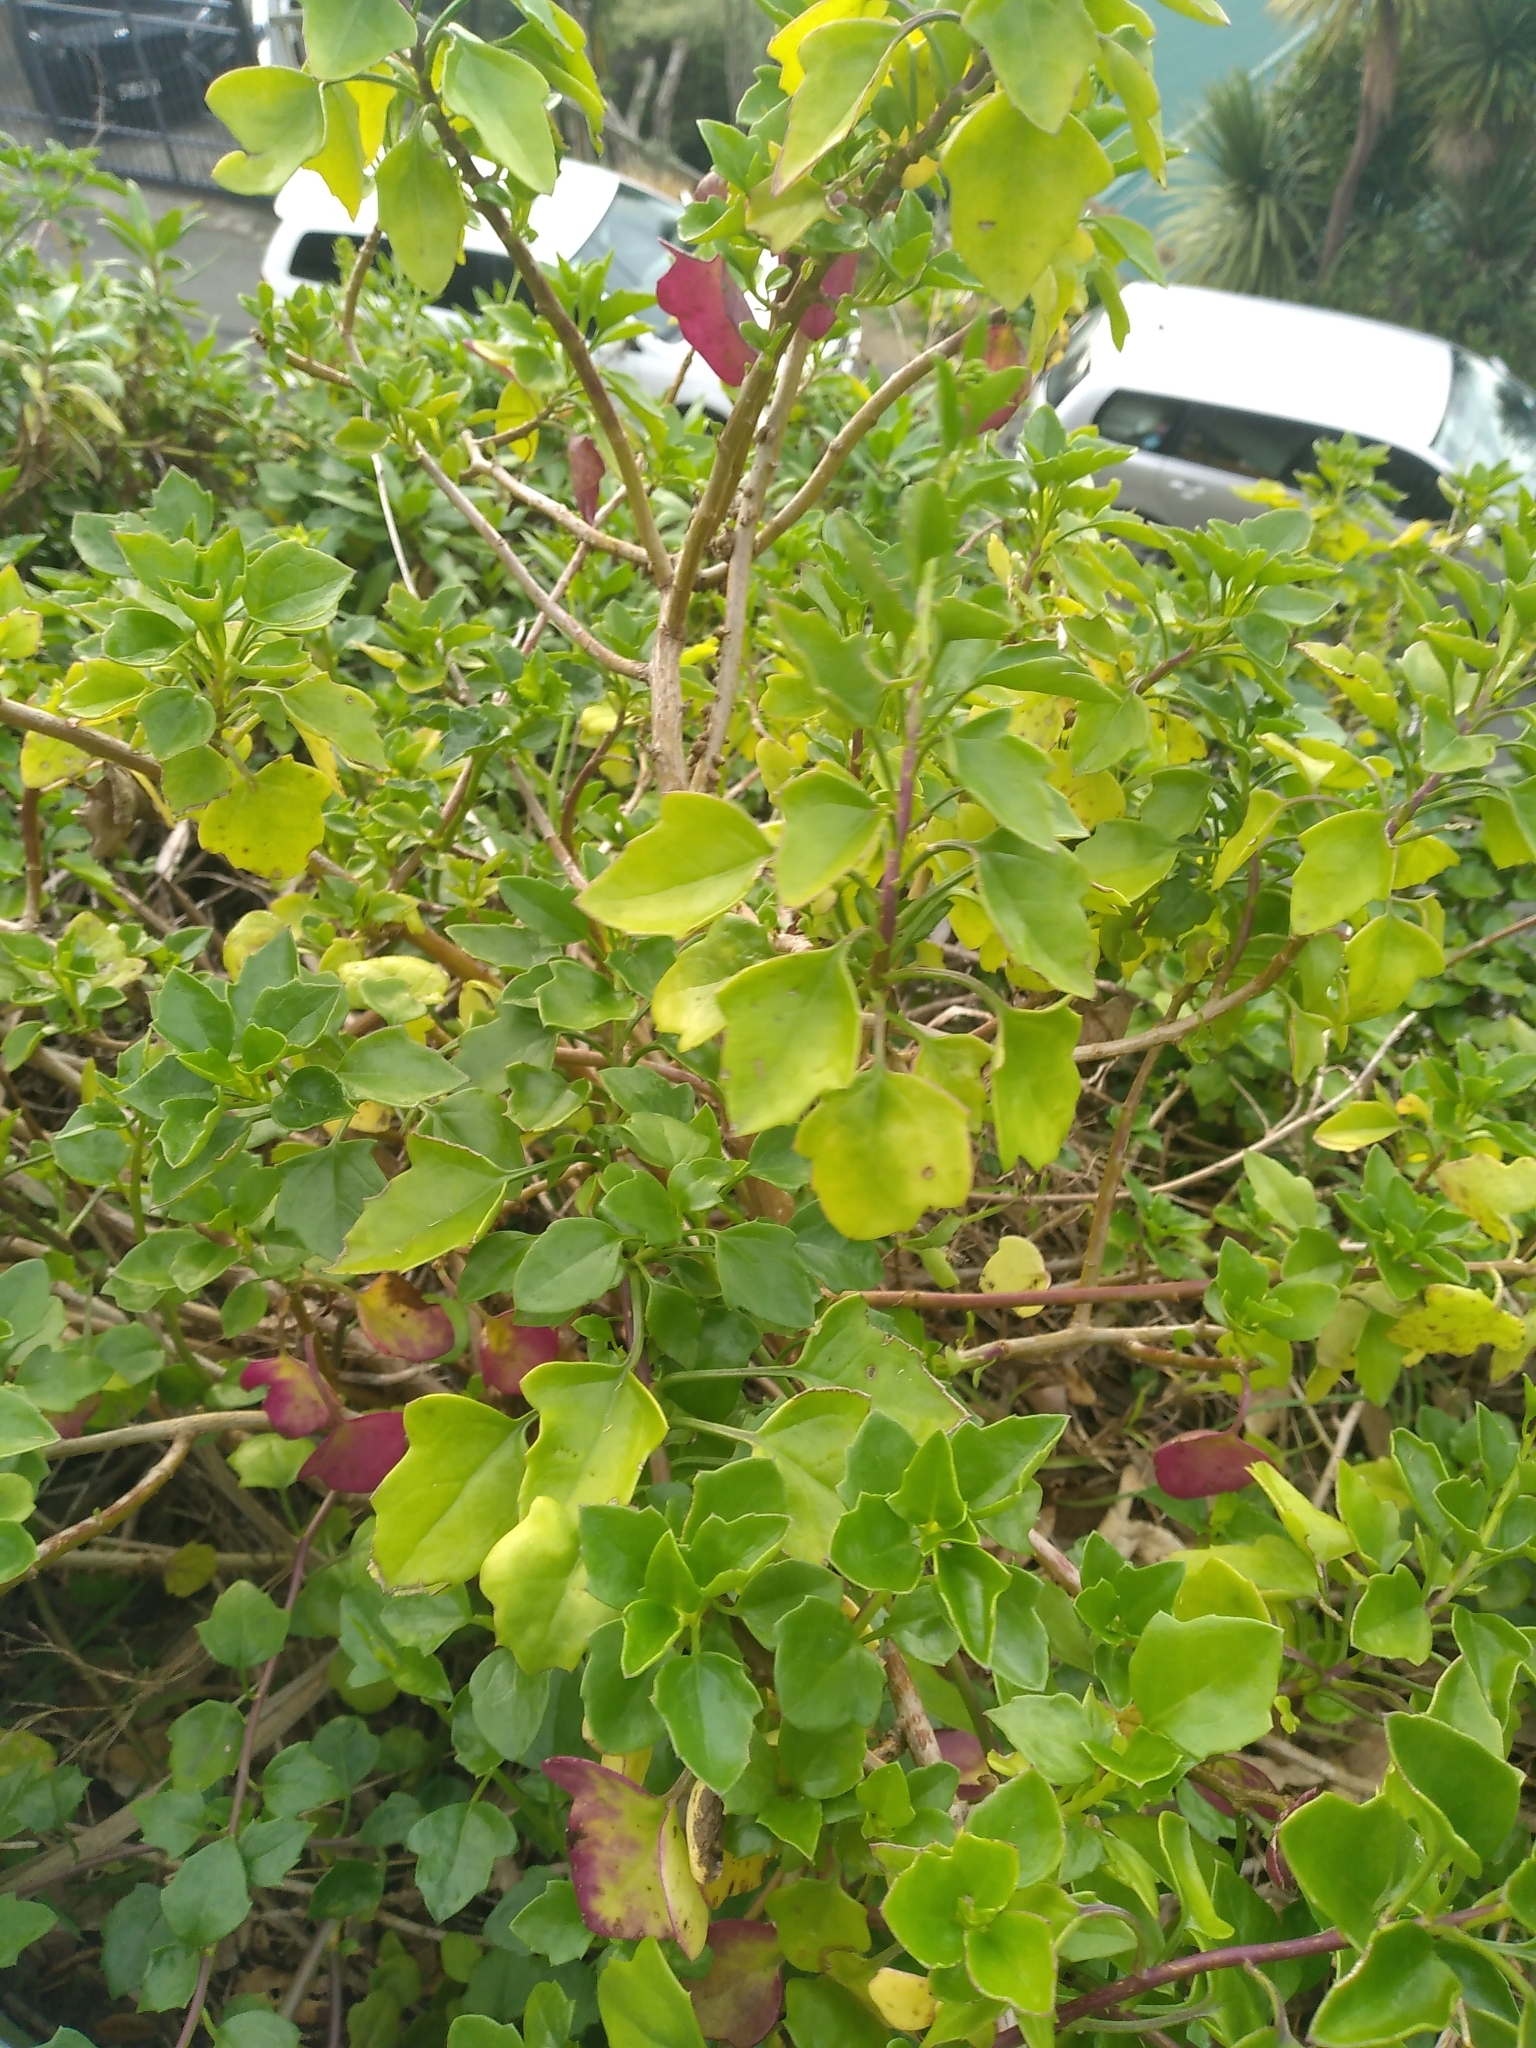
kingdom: Plantae
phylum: Tracheophyta
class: Magnoliopsida
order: Asterales
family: Asteraceae
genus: Senecio
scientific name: Senecio angulatus
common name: Climbing groundsel
